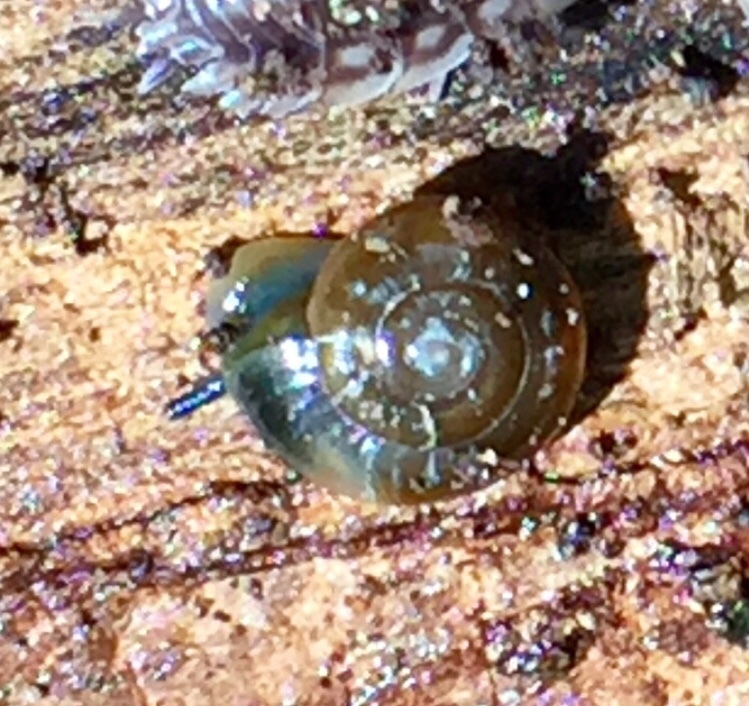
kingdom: Animalia
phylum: Mollusca
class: Gastropoda
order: Stylommatophora
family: Gastrodontidae
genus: Zonitoides
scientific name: Zonitoides arboreus
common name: Quick gloss
